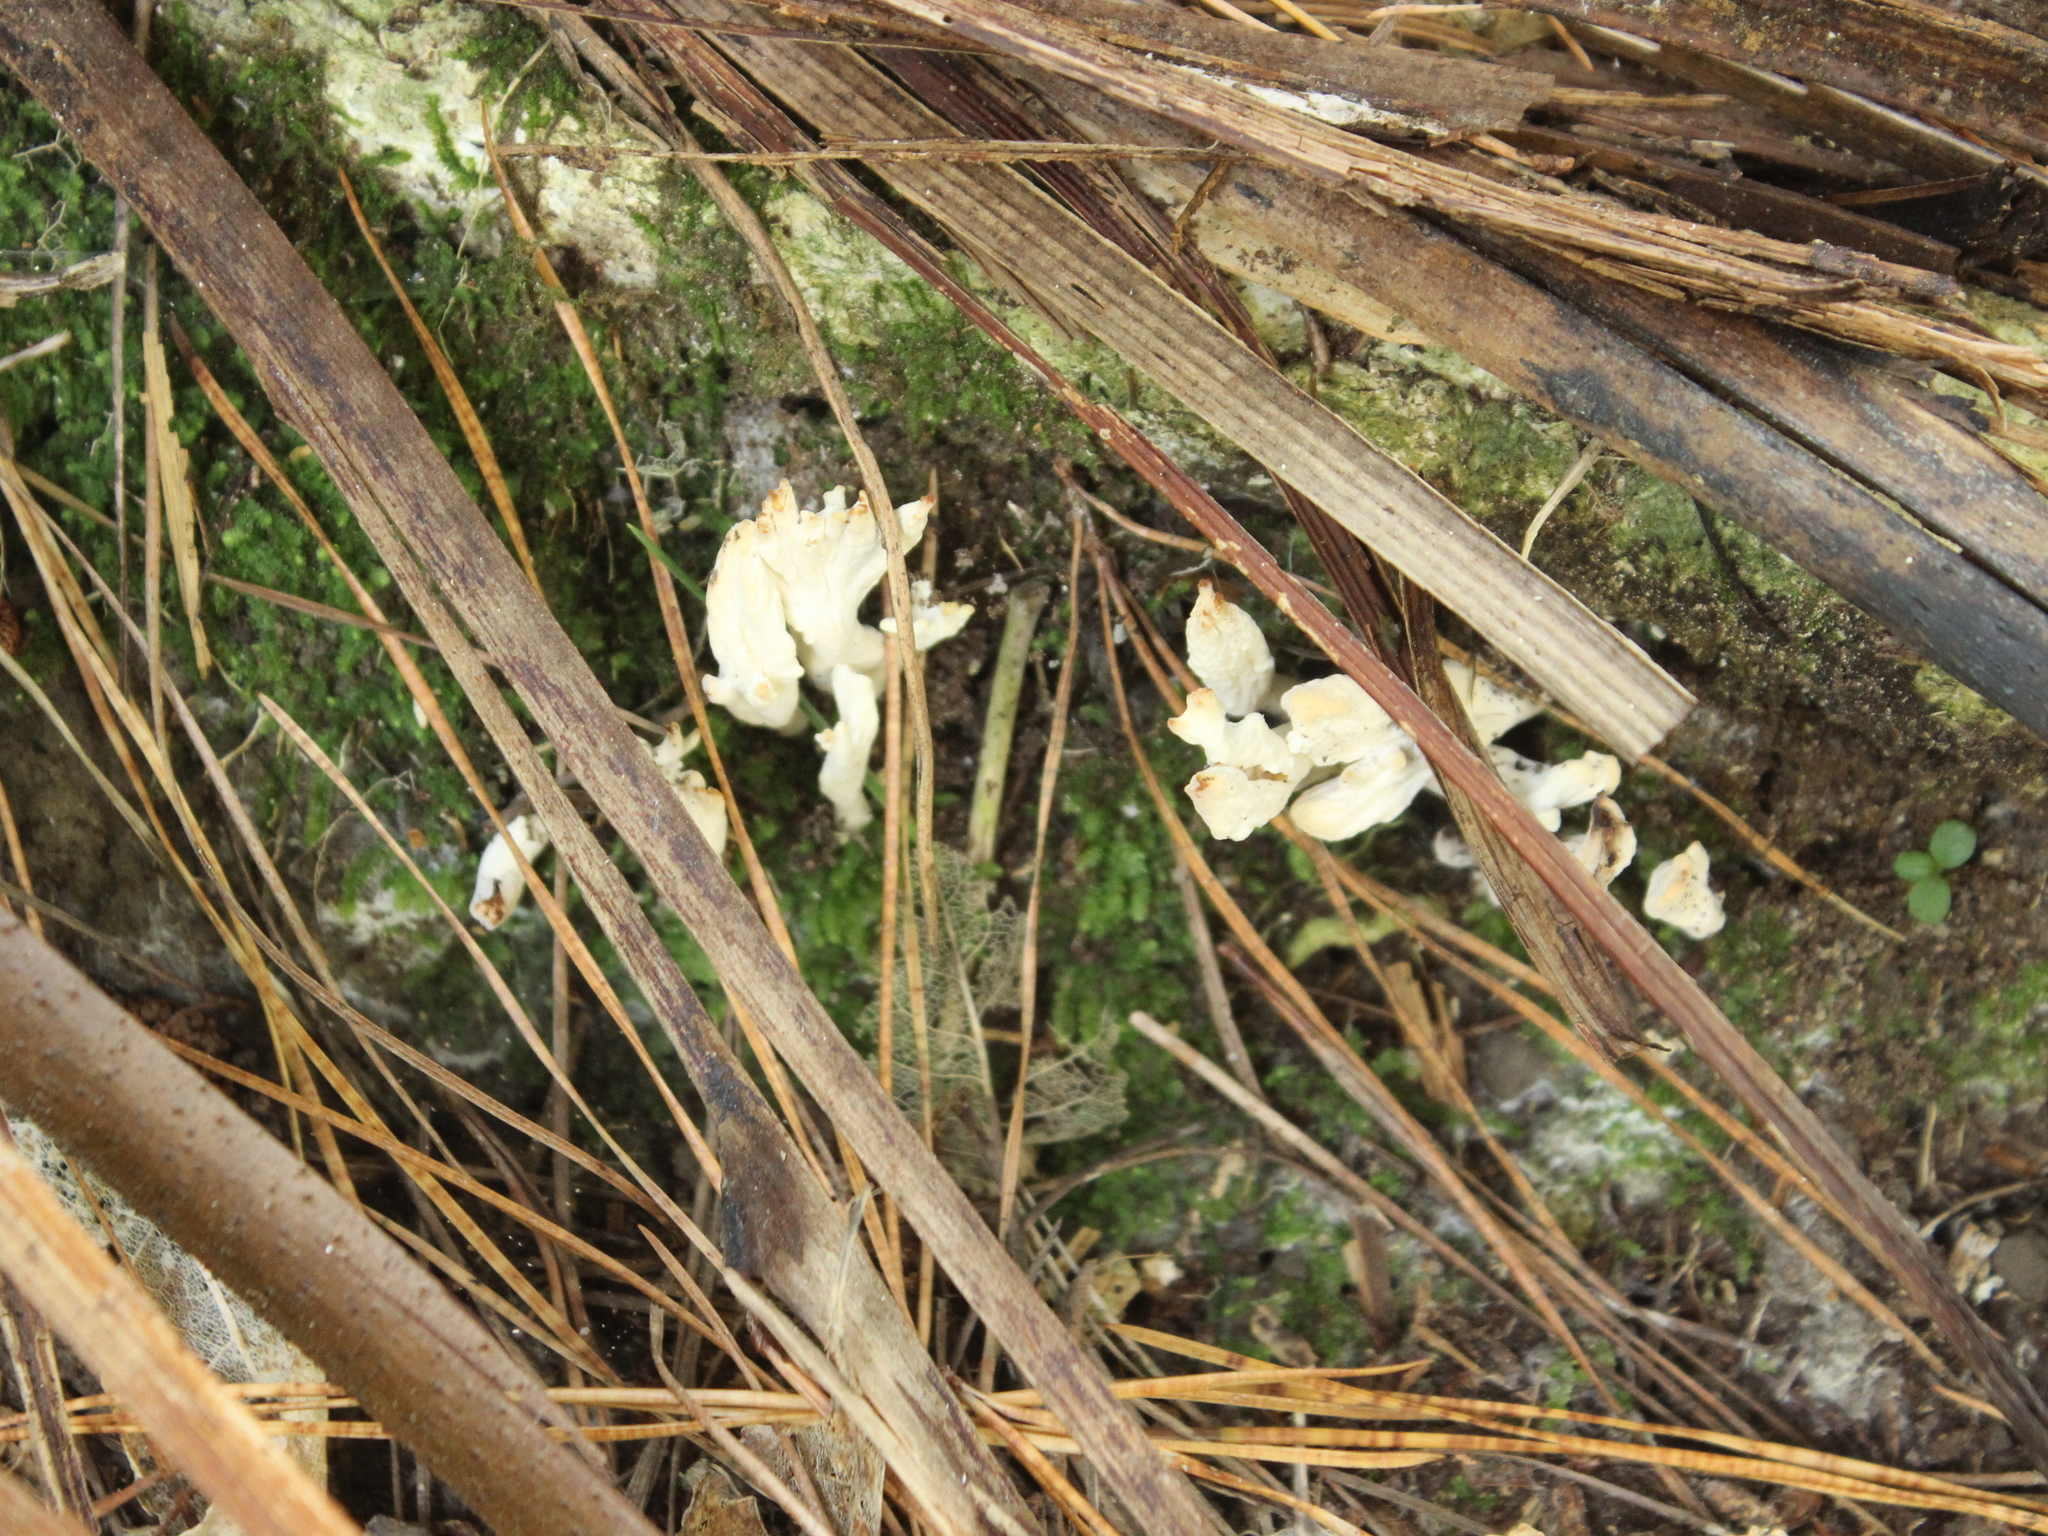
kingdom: Fungi
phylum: Basidiomycota
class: Agaricomycetes
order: Cantharellales
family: Hydnaceae
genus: Clavulina
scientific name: Clavulina rugosa
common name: Wrinkled club
